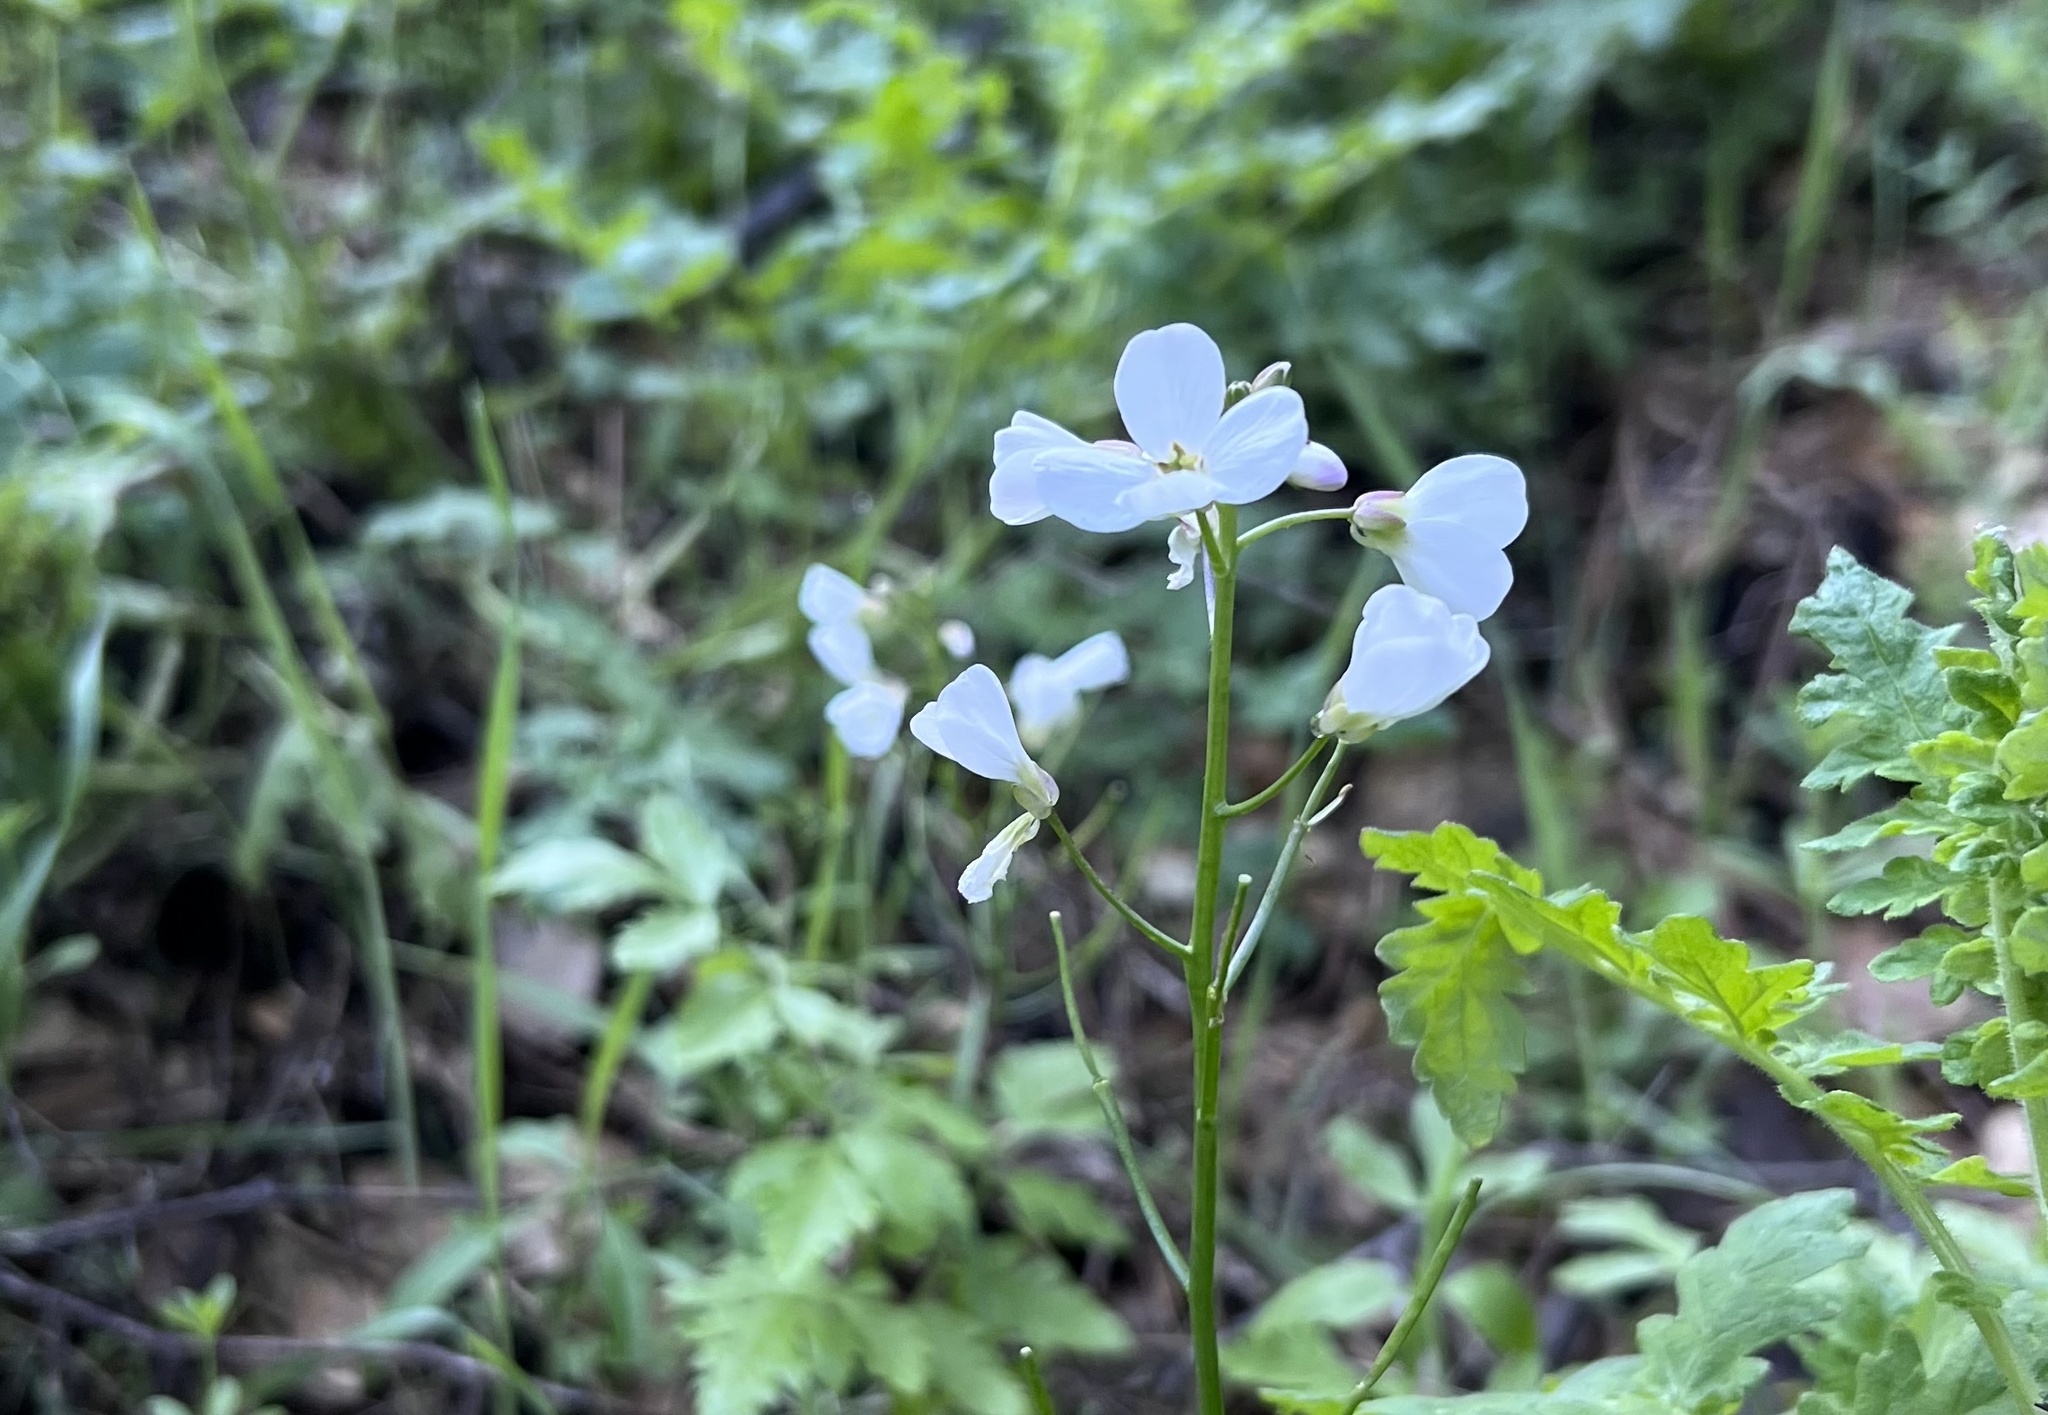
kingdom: Plantae
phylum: Tracheophyta
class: Magnoliopsida
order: Brassicales
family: Brassicaceae
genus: Cardamine
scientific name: Cardamine californica
